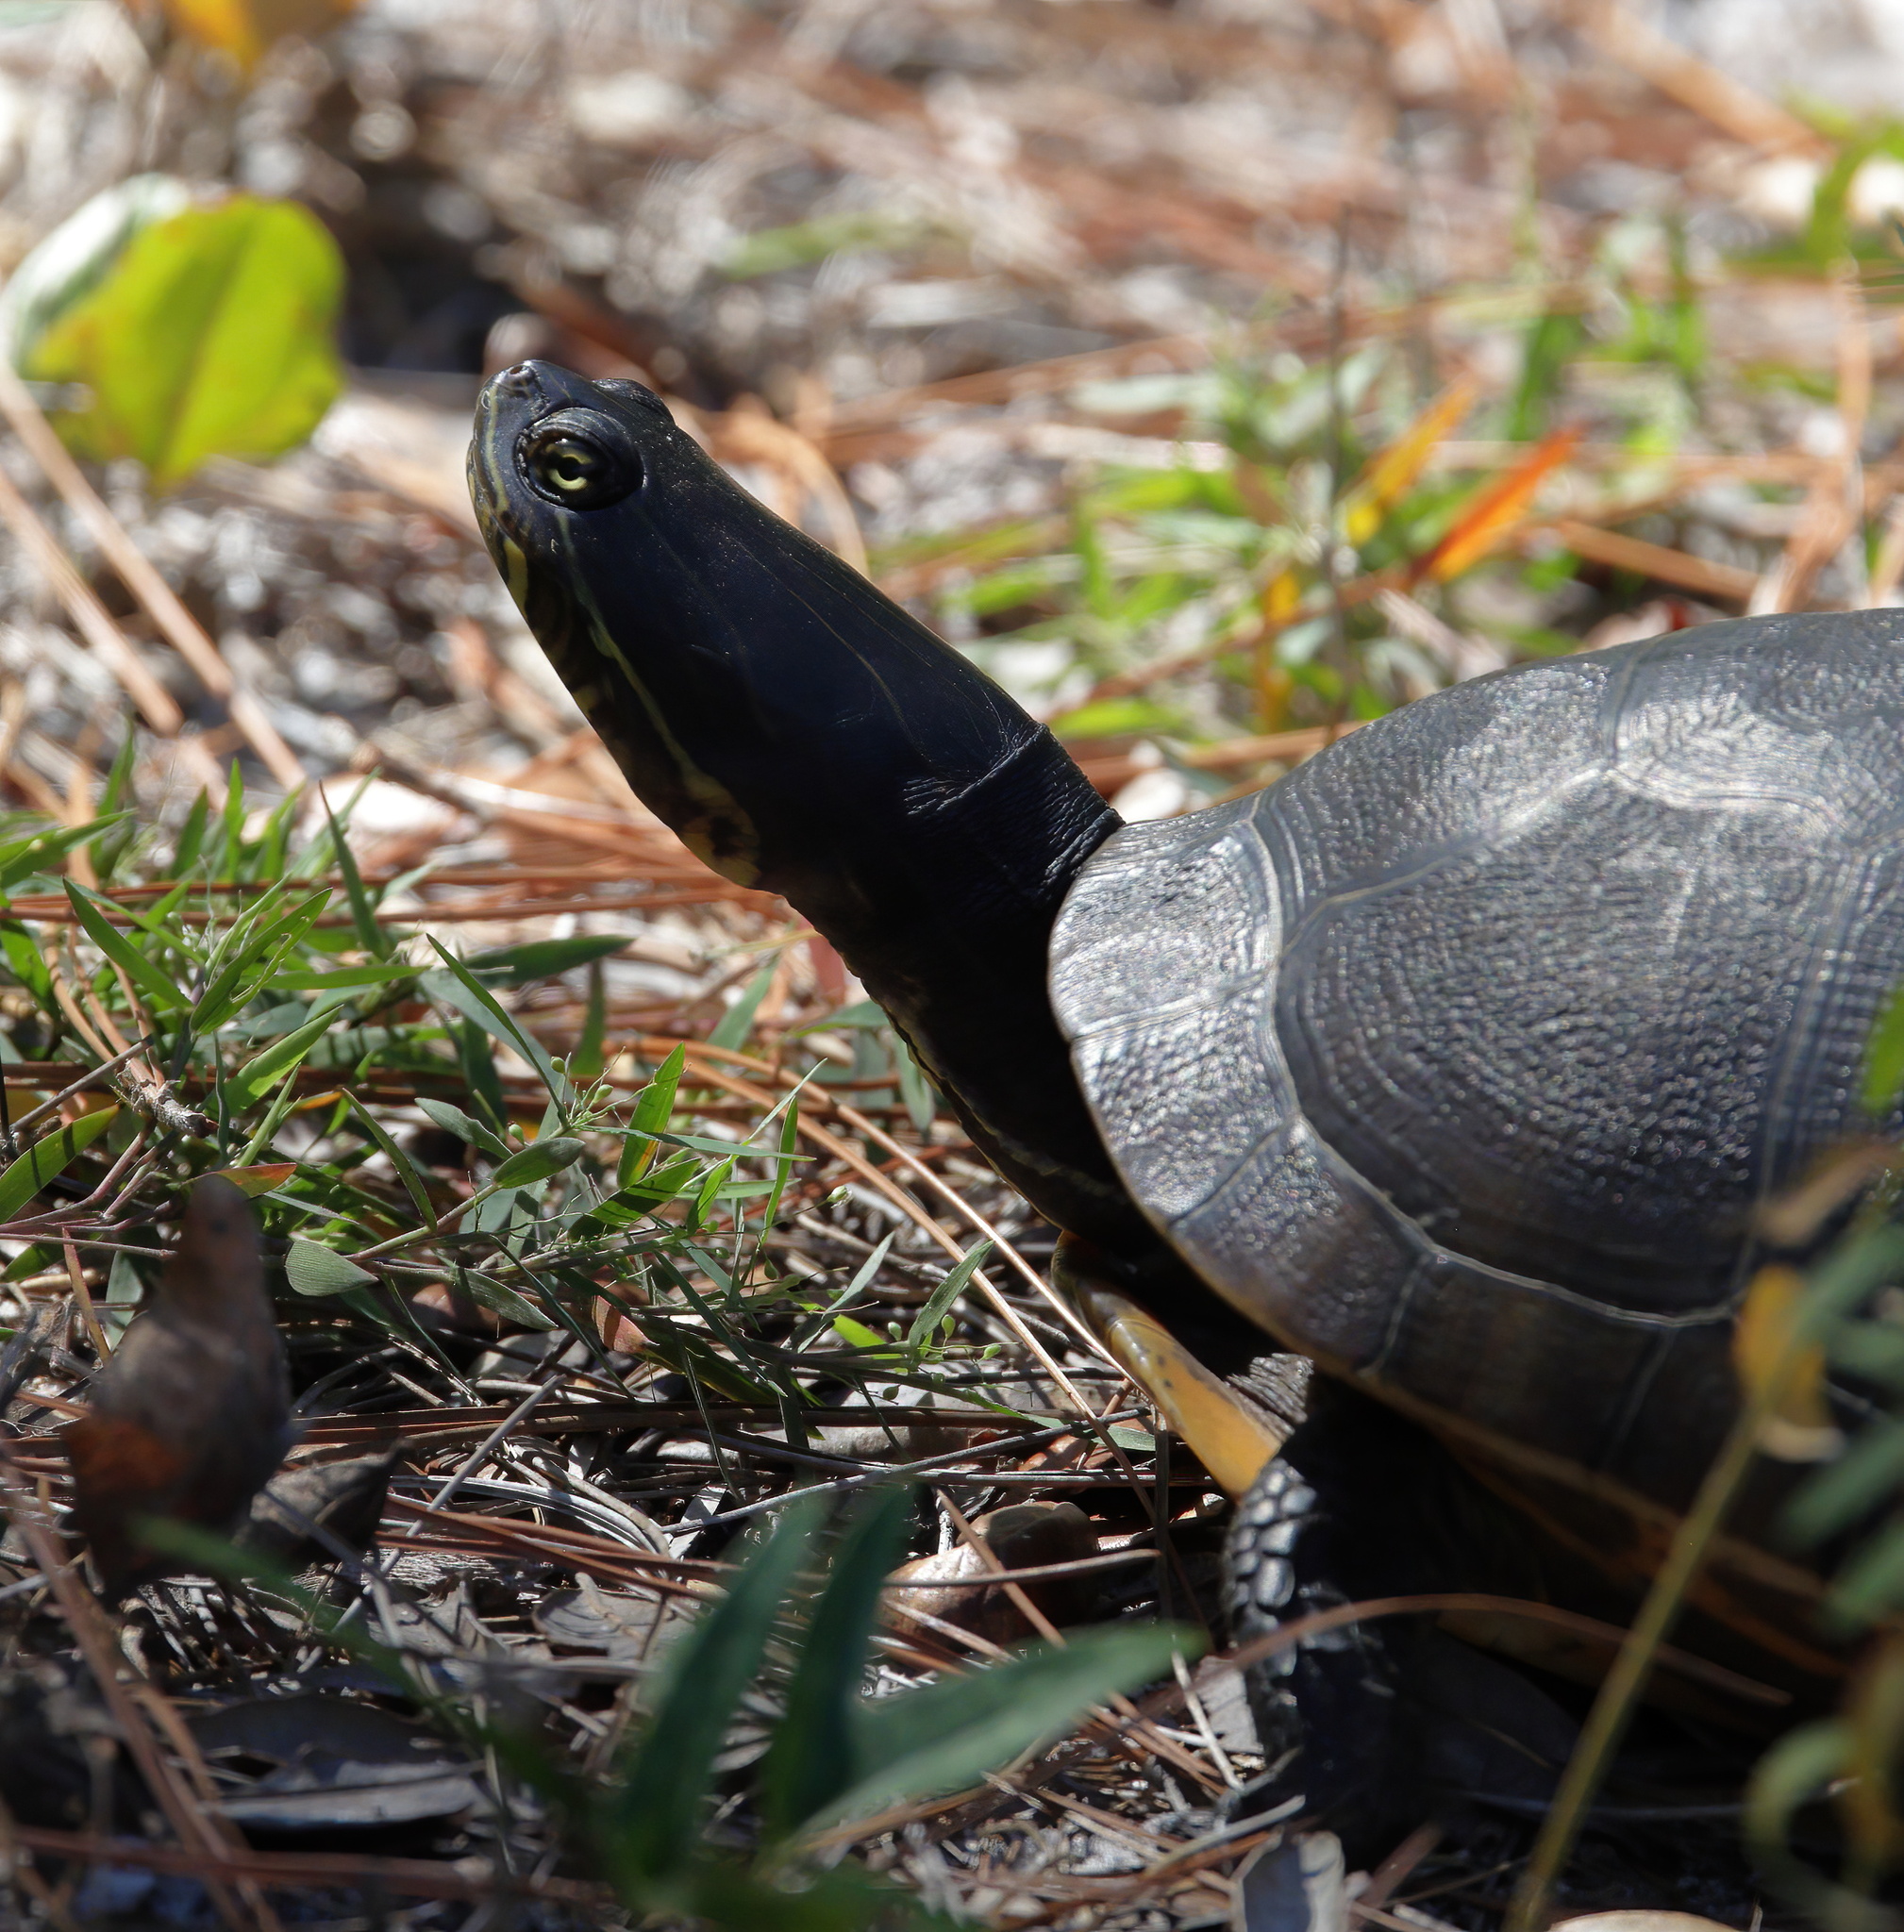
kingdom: Animalia
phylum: Chordata
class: Testudines
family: Emydidae
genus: Deirochelys
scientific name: Deirochelys reticularia
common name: Chicken turtle
